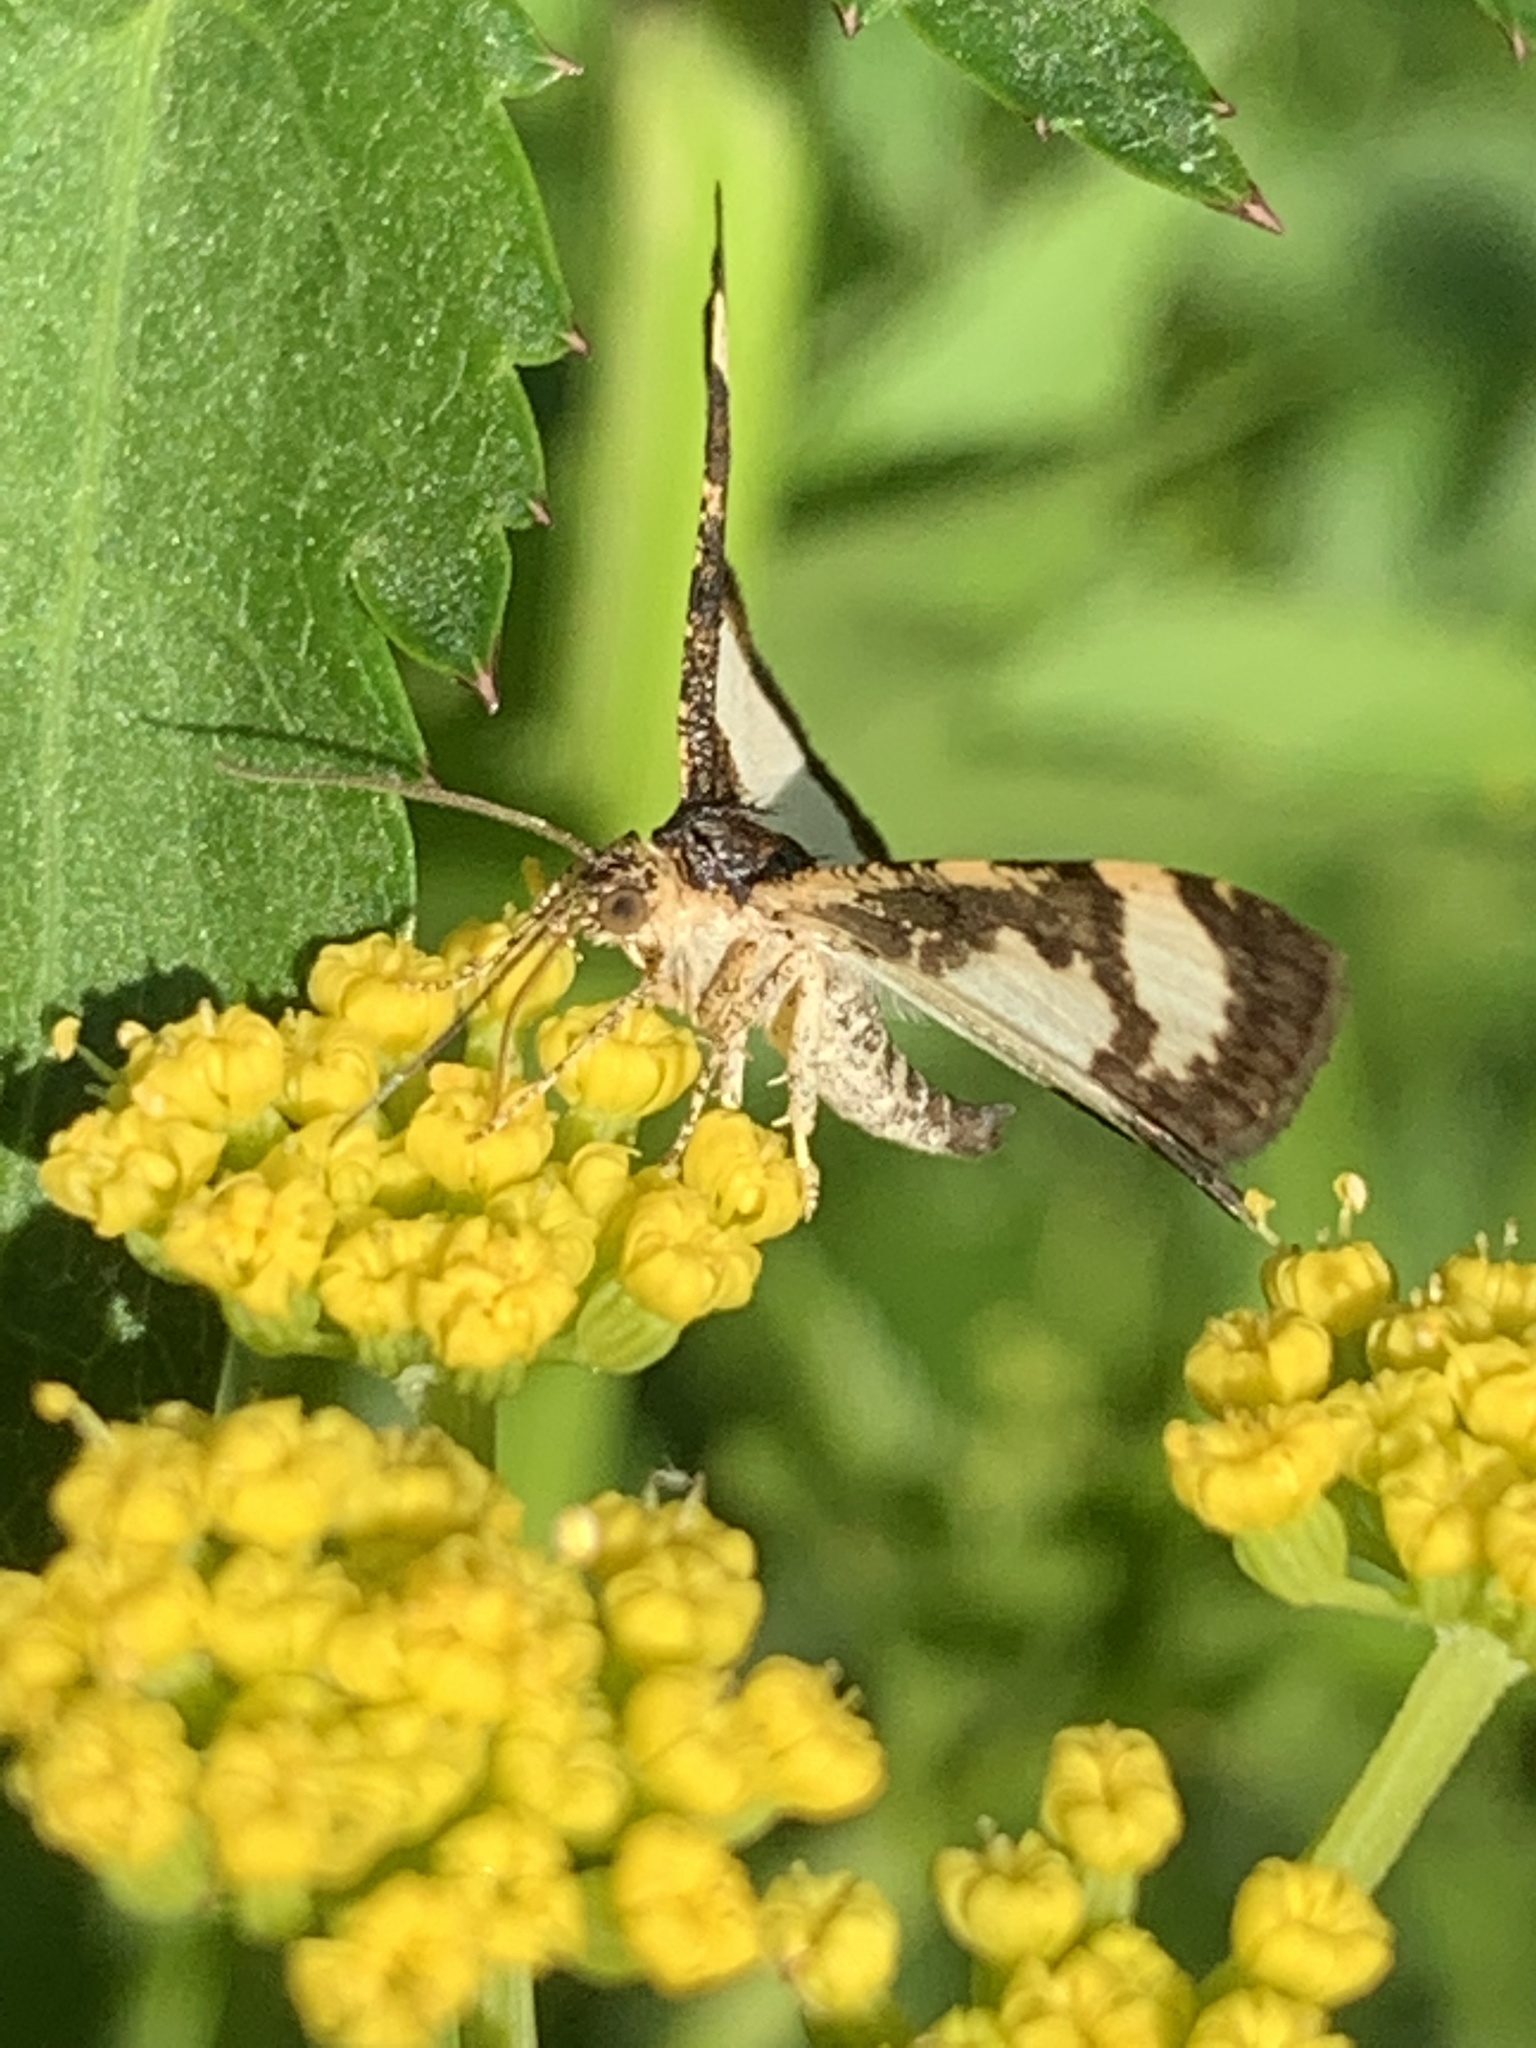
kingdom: Animalia
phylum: Arthropoda
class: Insecta
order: Lepidoptera
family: Geometridae
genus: Heliomata
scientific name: Heliomata cycladata
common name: Common spring moth
